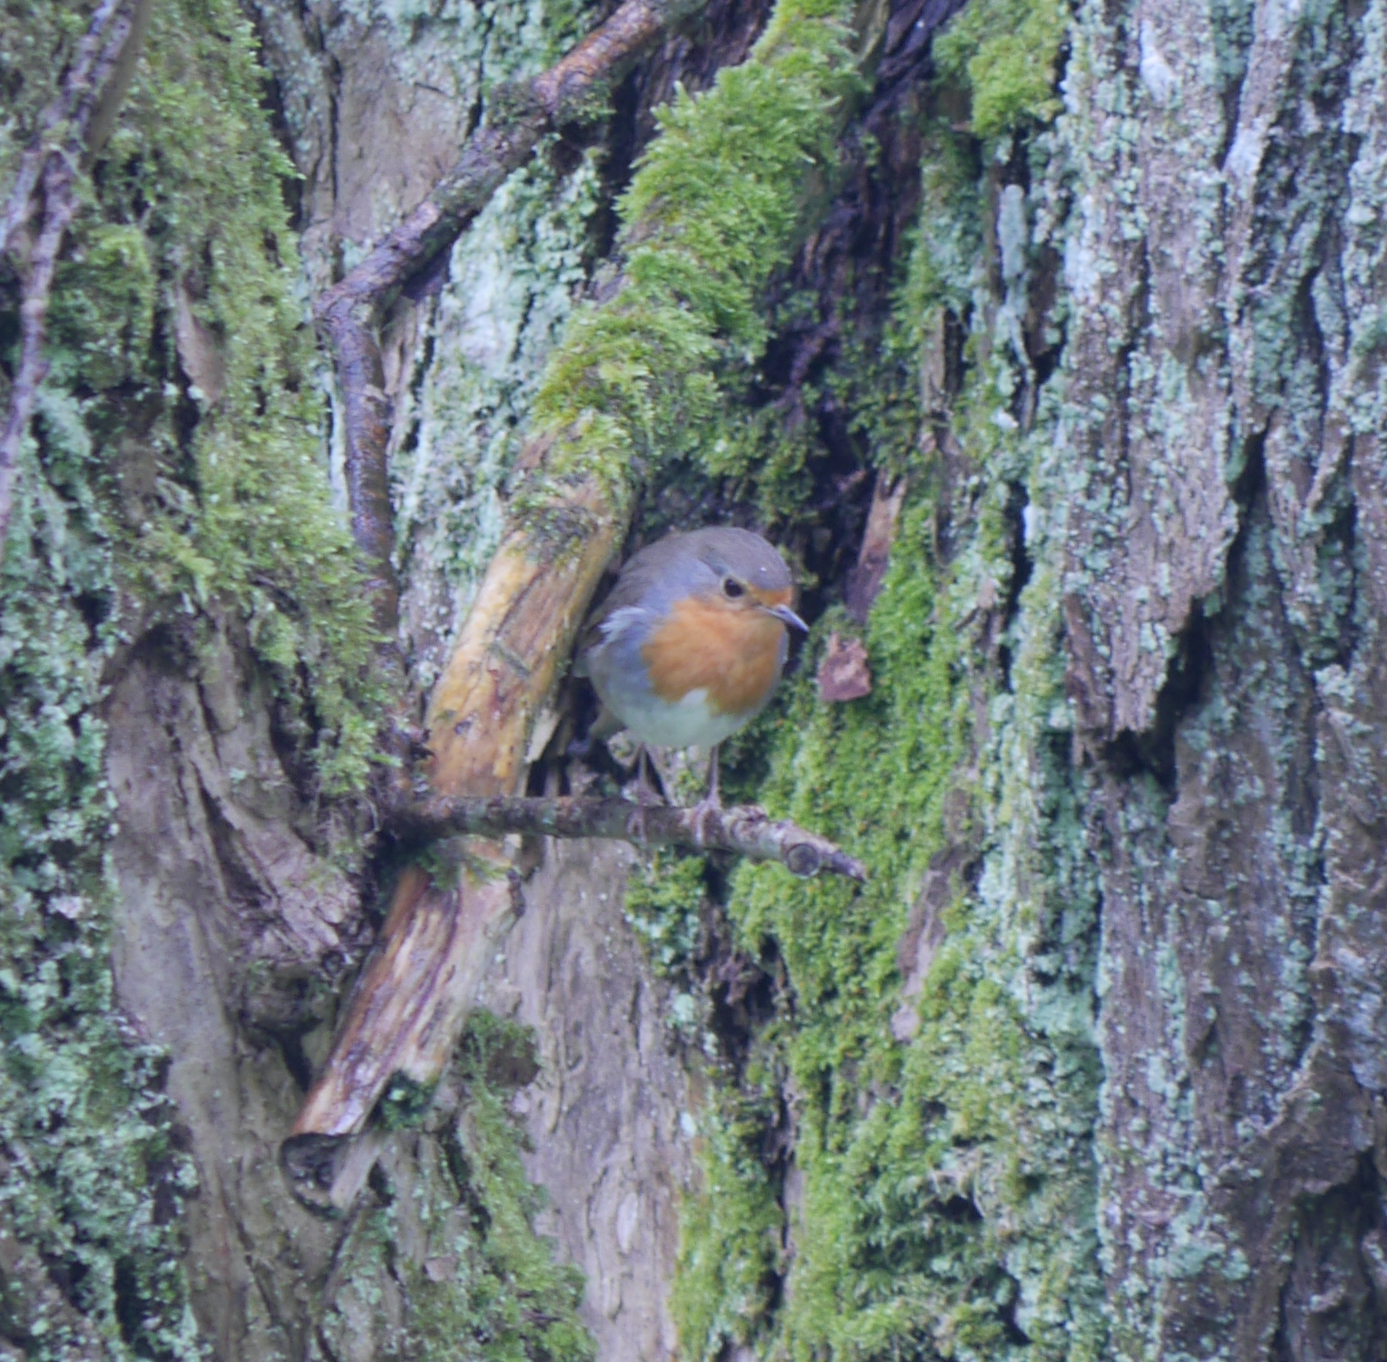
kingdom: Animalia
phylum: Chordata
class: Aves
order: Passeriformes
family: Muscicapidae
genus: Erithacus
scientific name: Erithacus rubecula
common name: European robin
